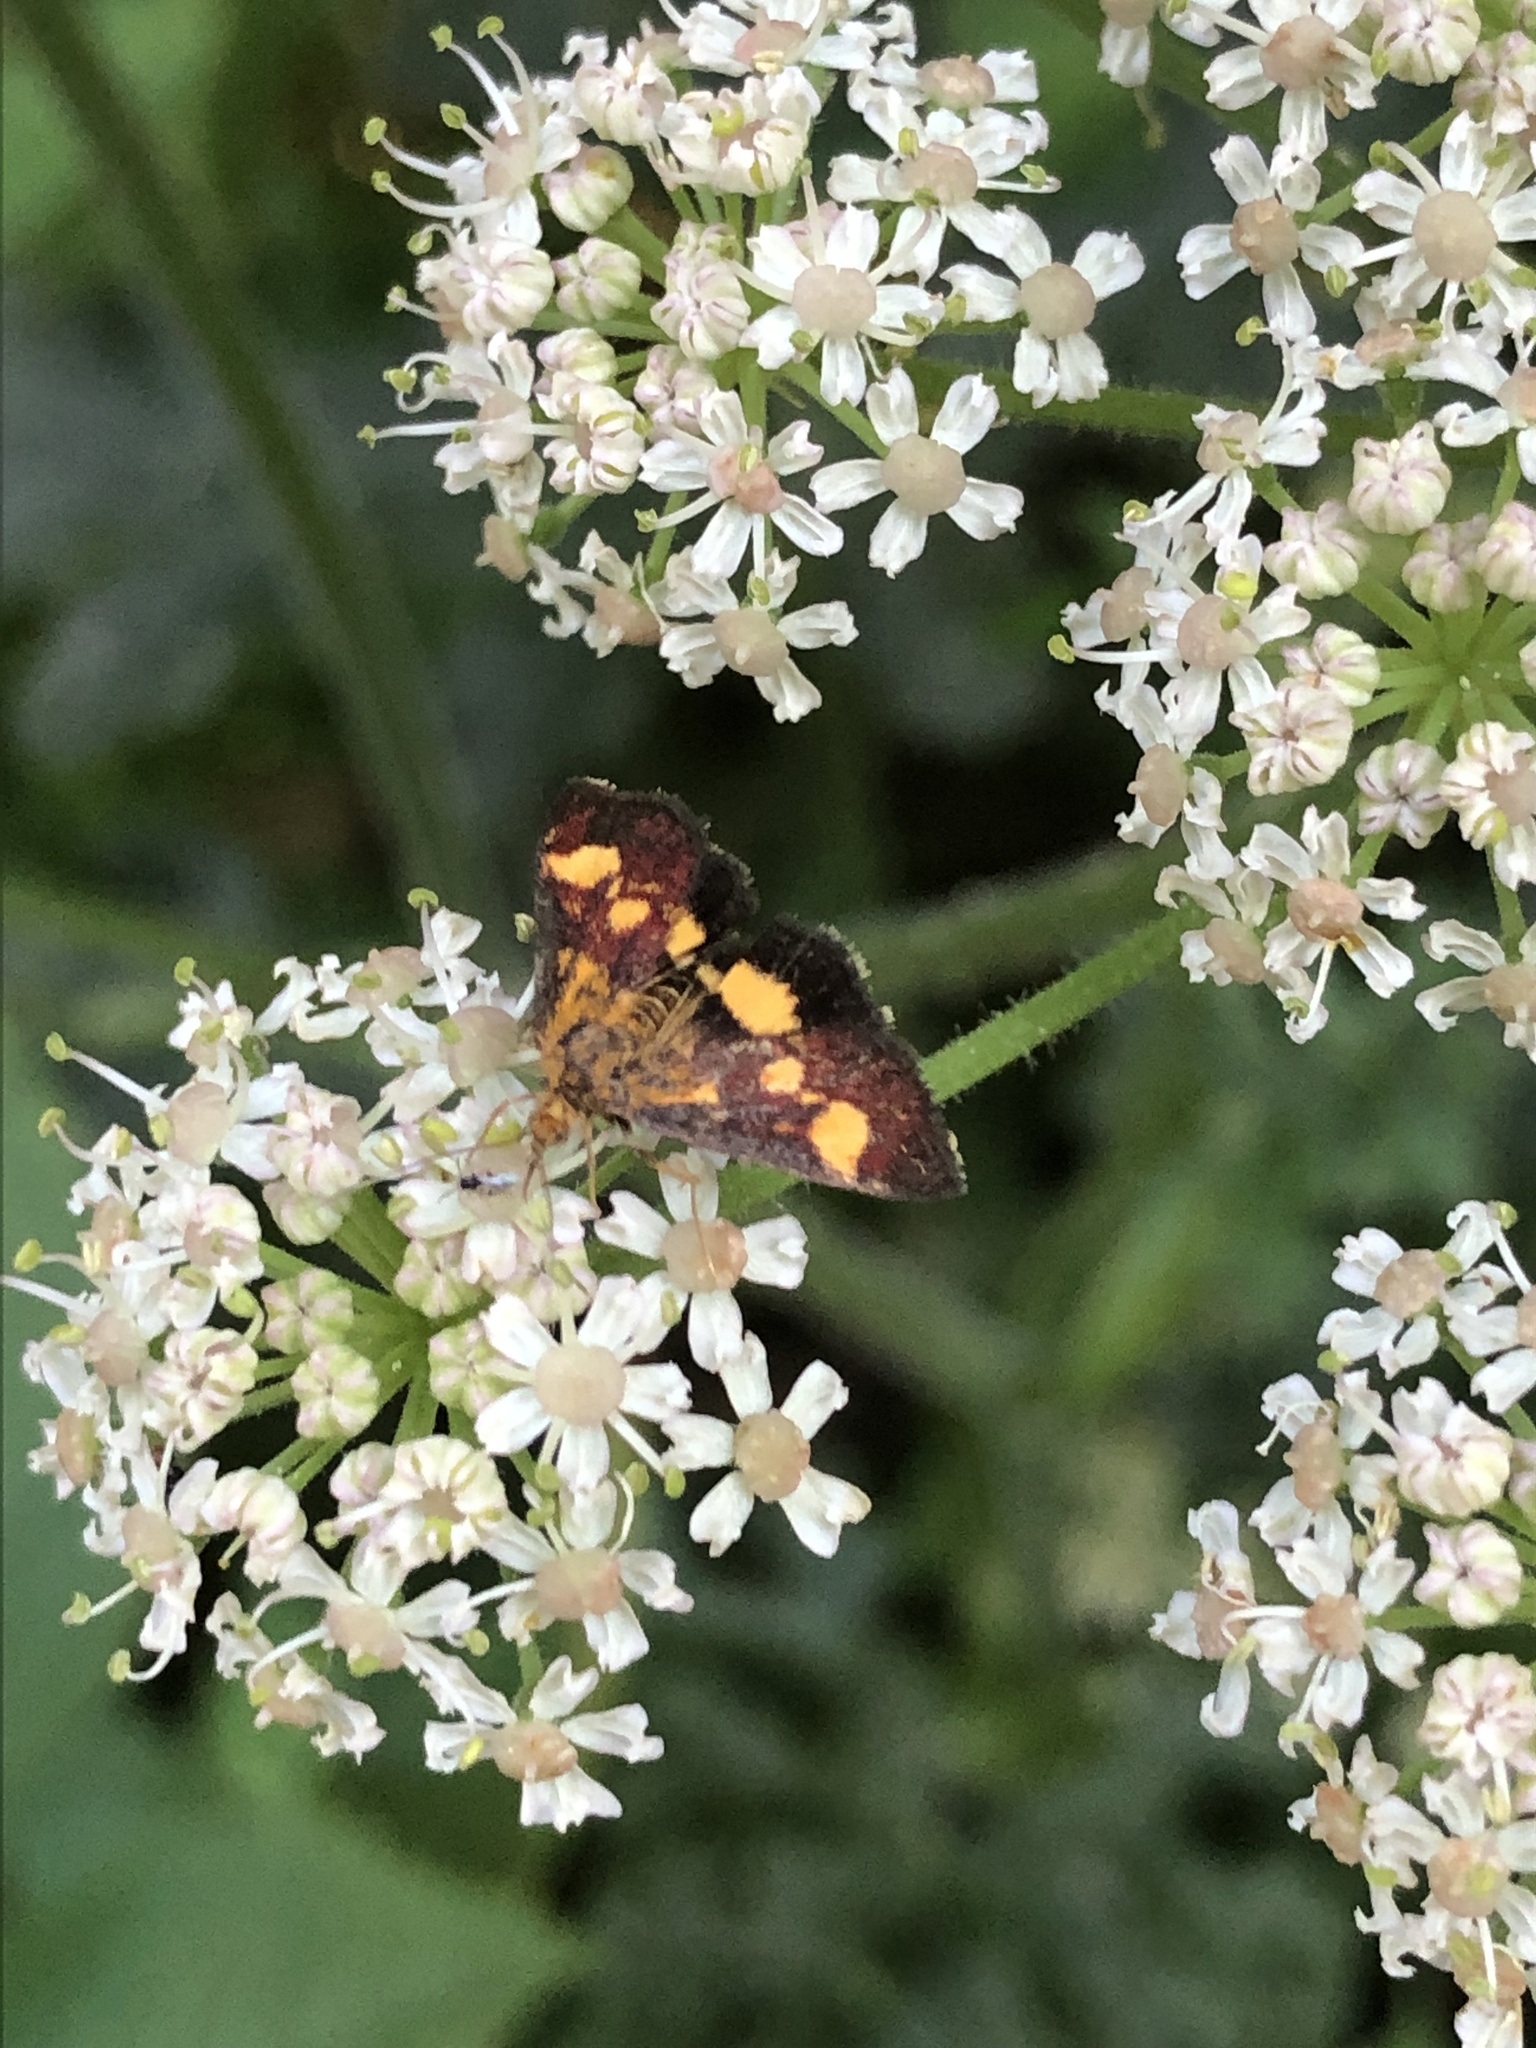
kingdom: Animalia
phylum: Arthropoda
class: Insecta
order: Lepidoptera
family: Crambidae
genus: Pyrausta
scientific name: Pyrausta falcatalis
